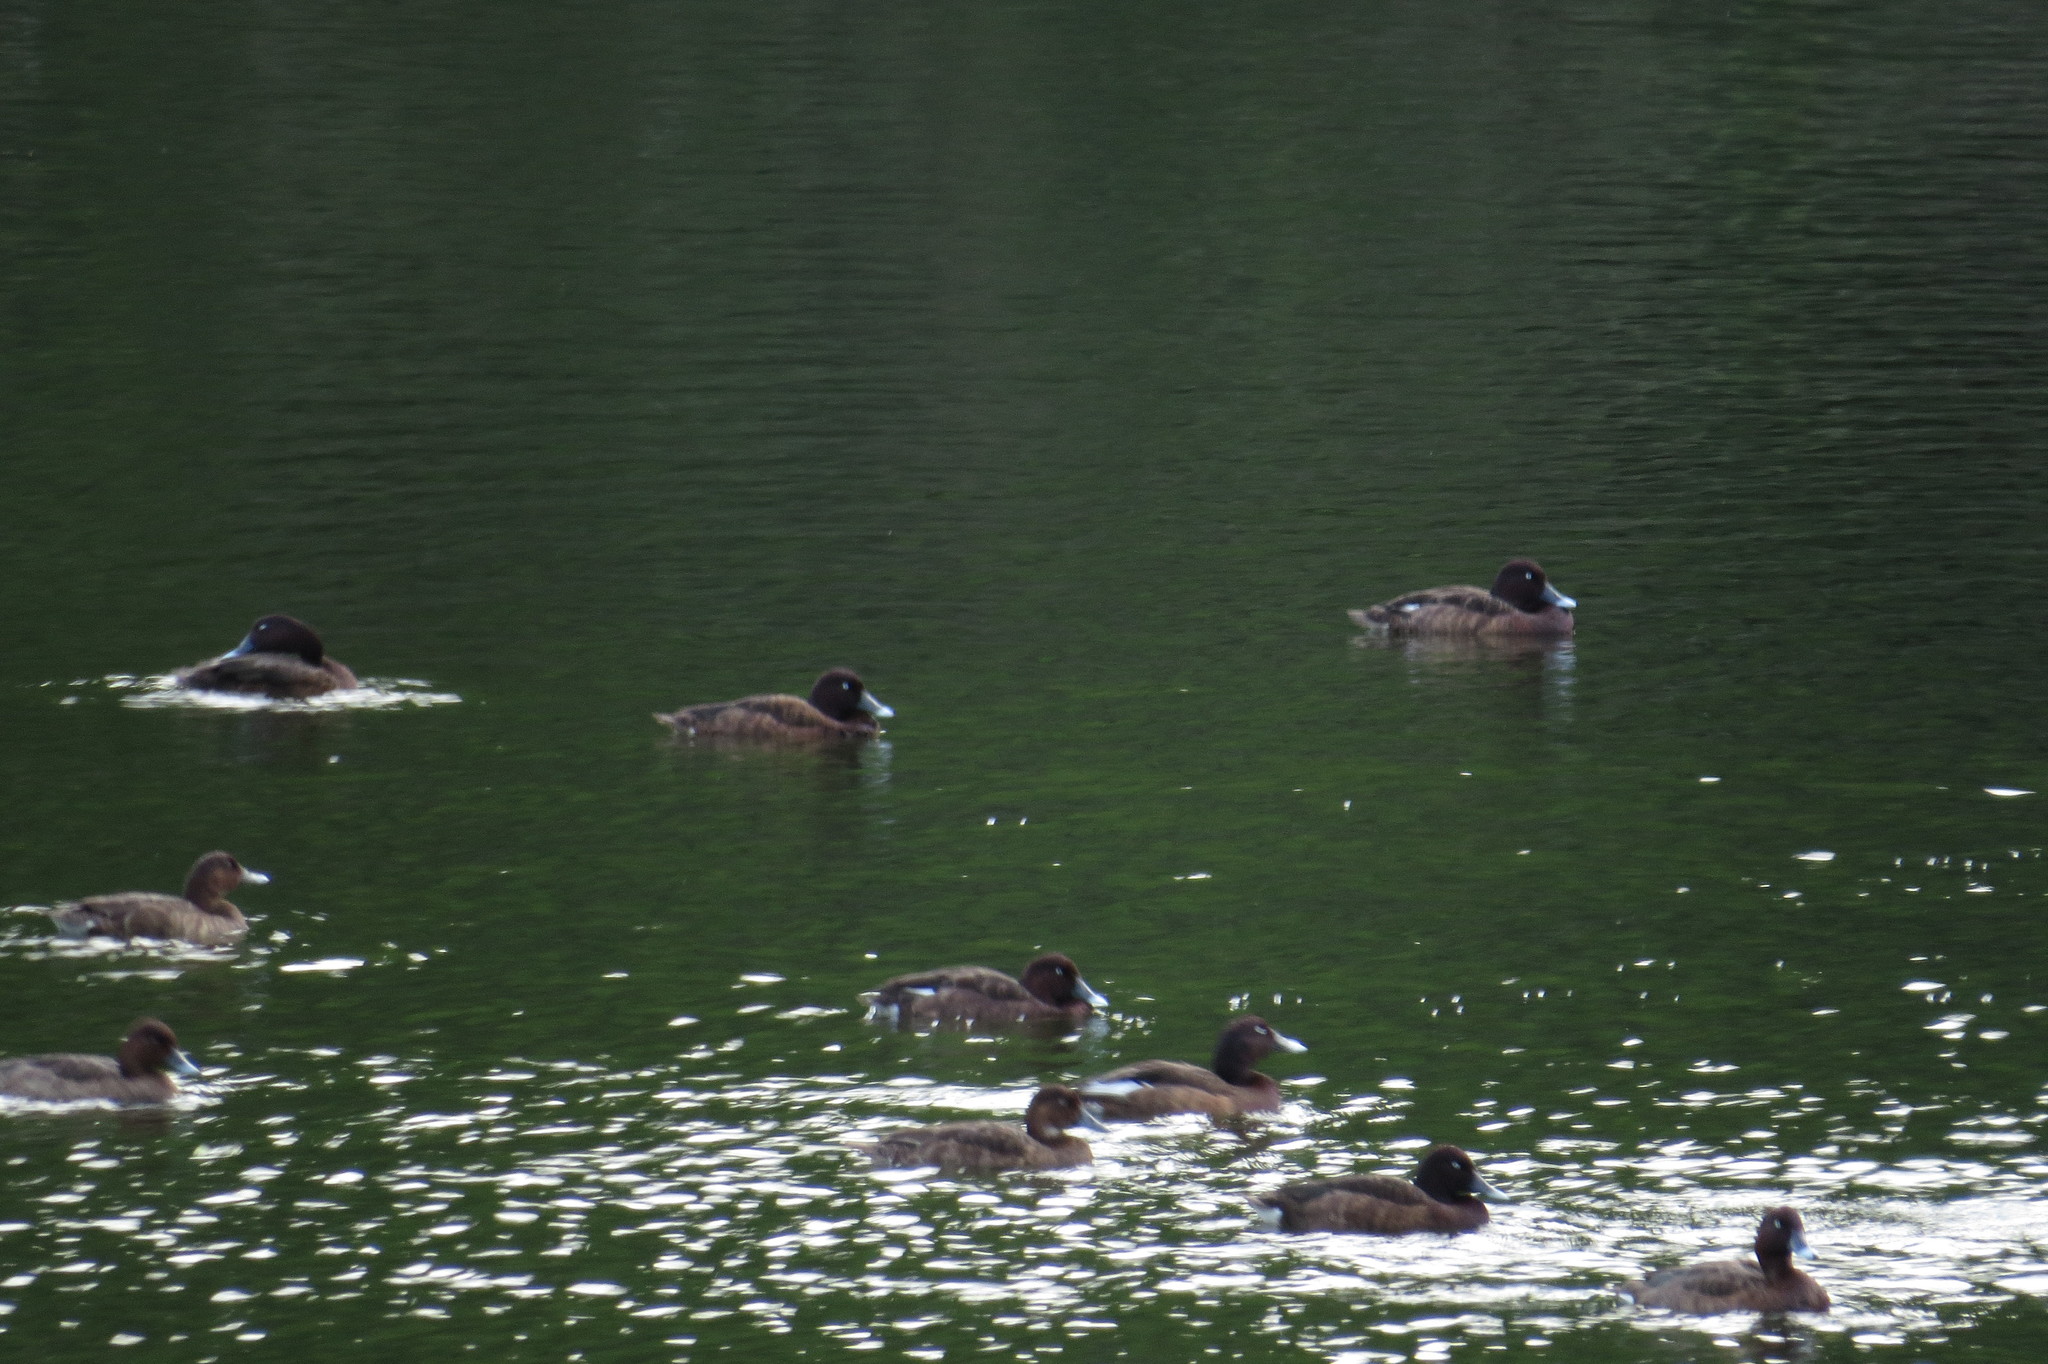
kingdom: Animalia
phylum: Chordata
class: Aves
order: Anseriformes
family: Anatidae
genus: Aythya
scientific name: Aythya australis
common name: Hardhead
